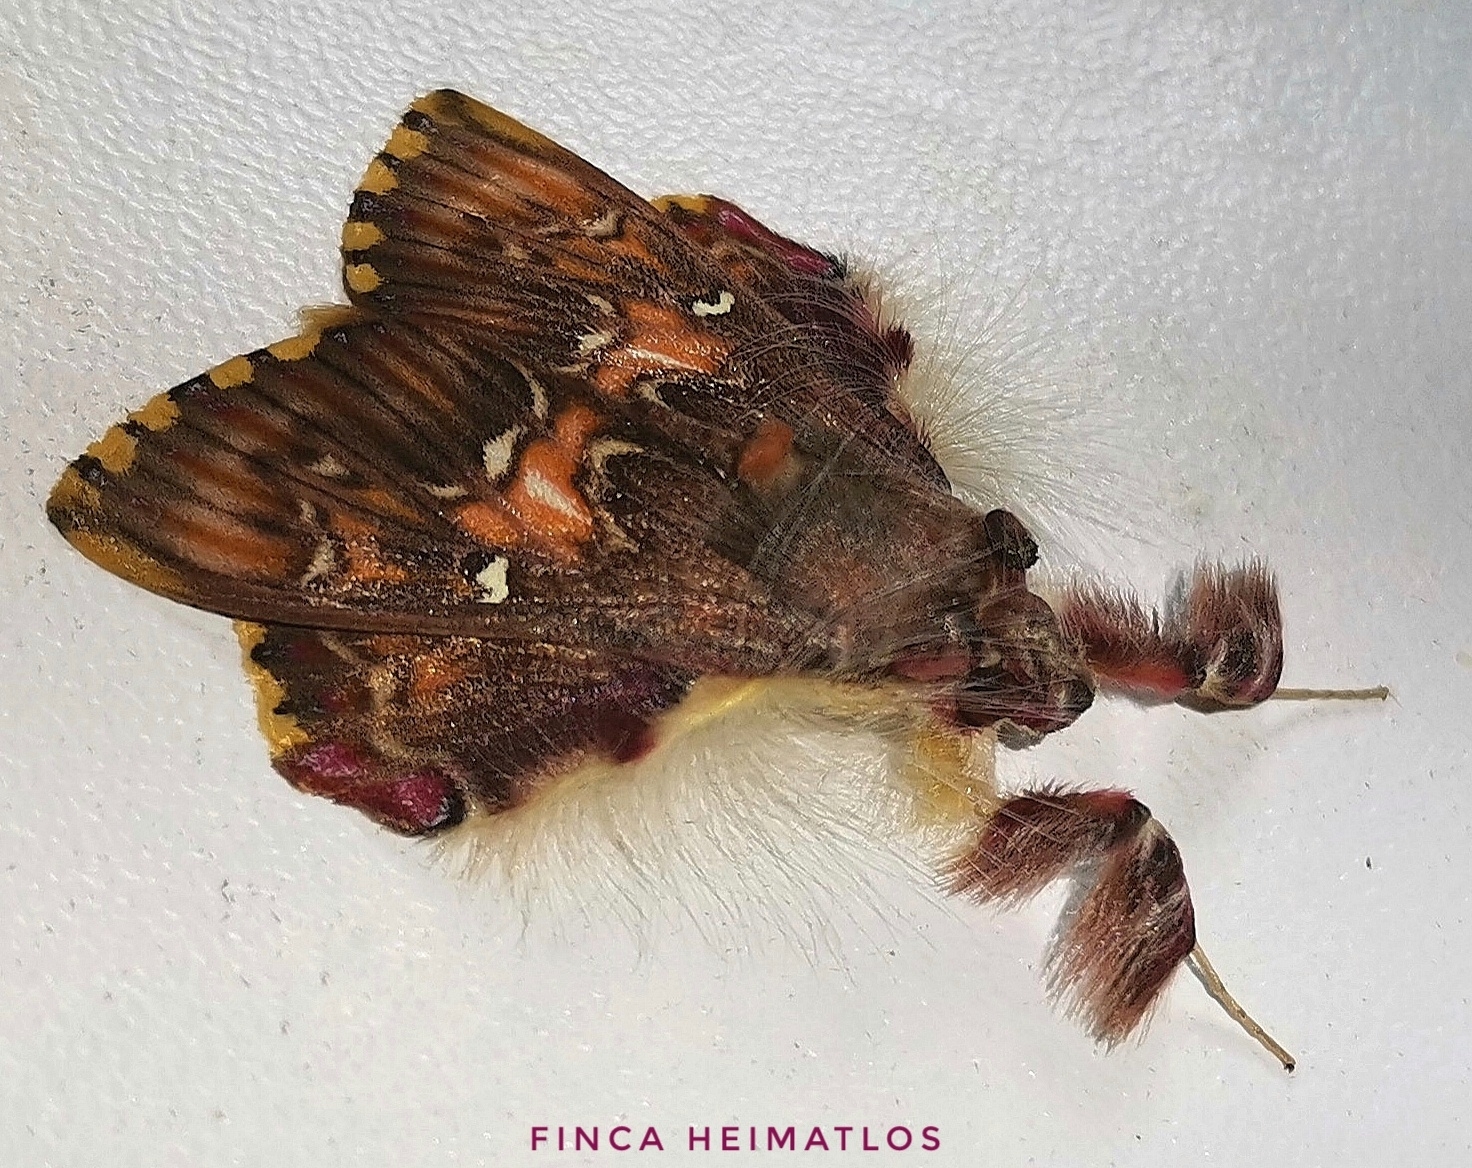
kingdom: Animalia
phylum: Arthropoda
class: Insecta
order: Lepidoptera
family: Erebidae
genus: Sosxetra
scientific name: Sosxetra grata
